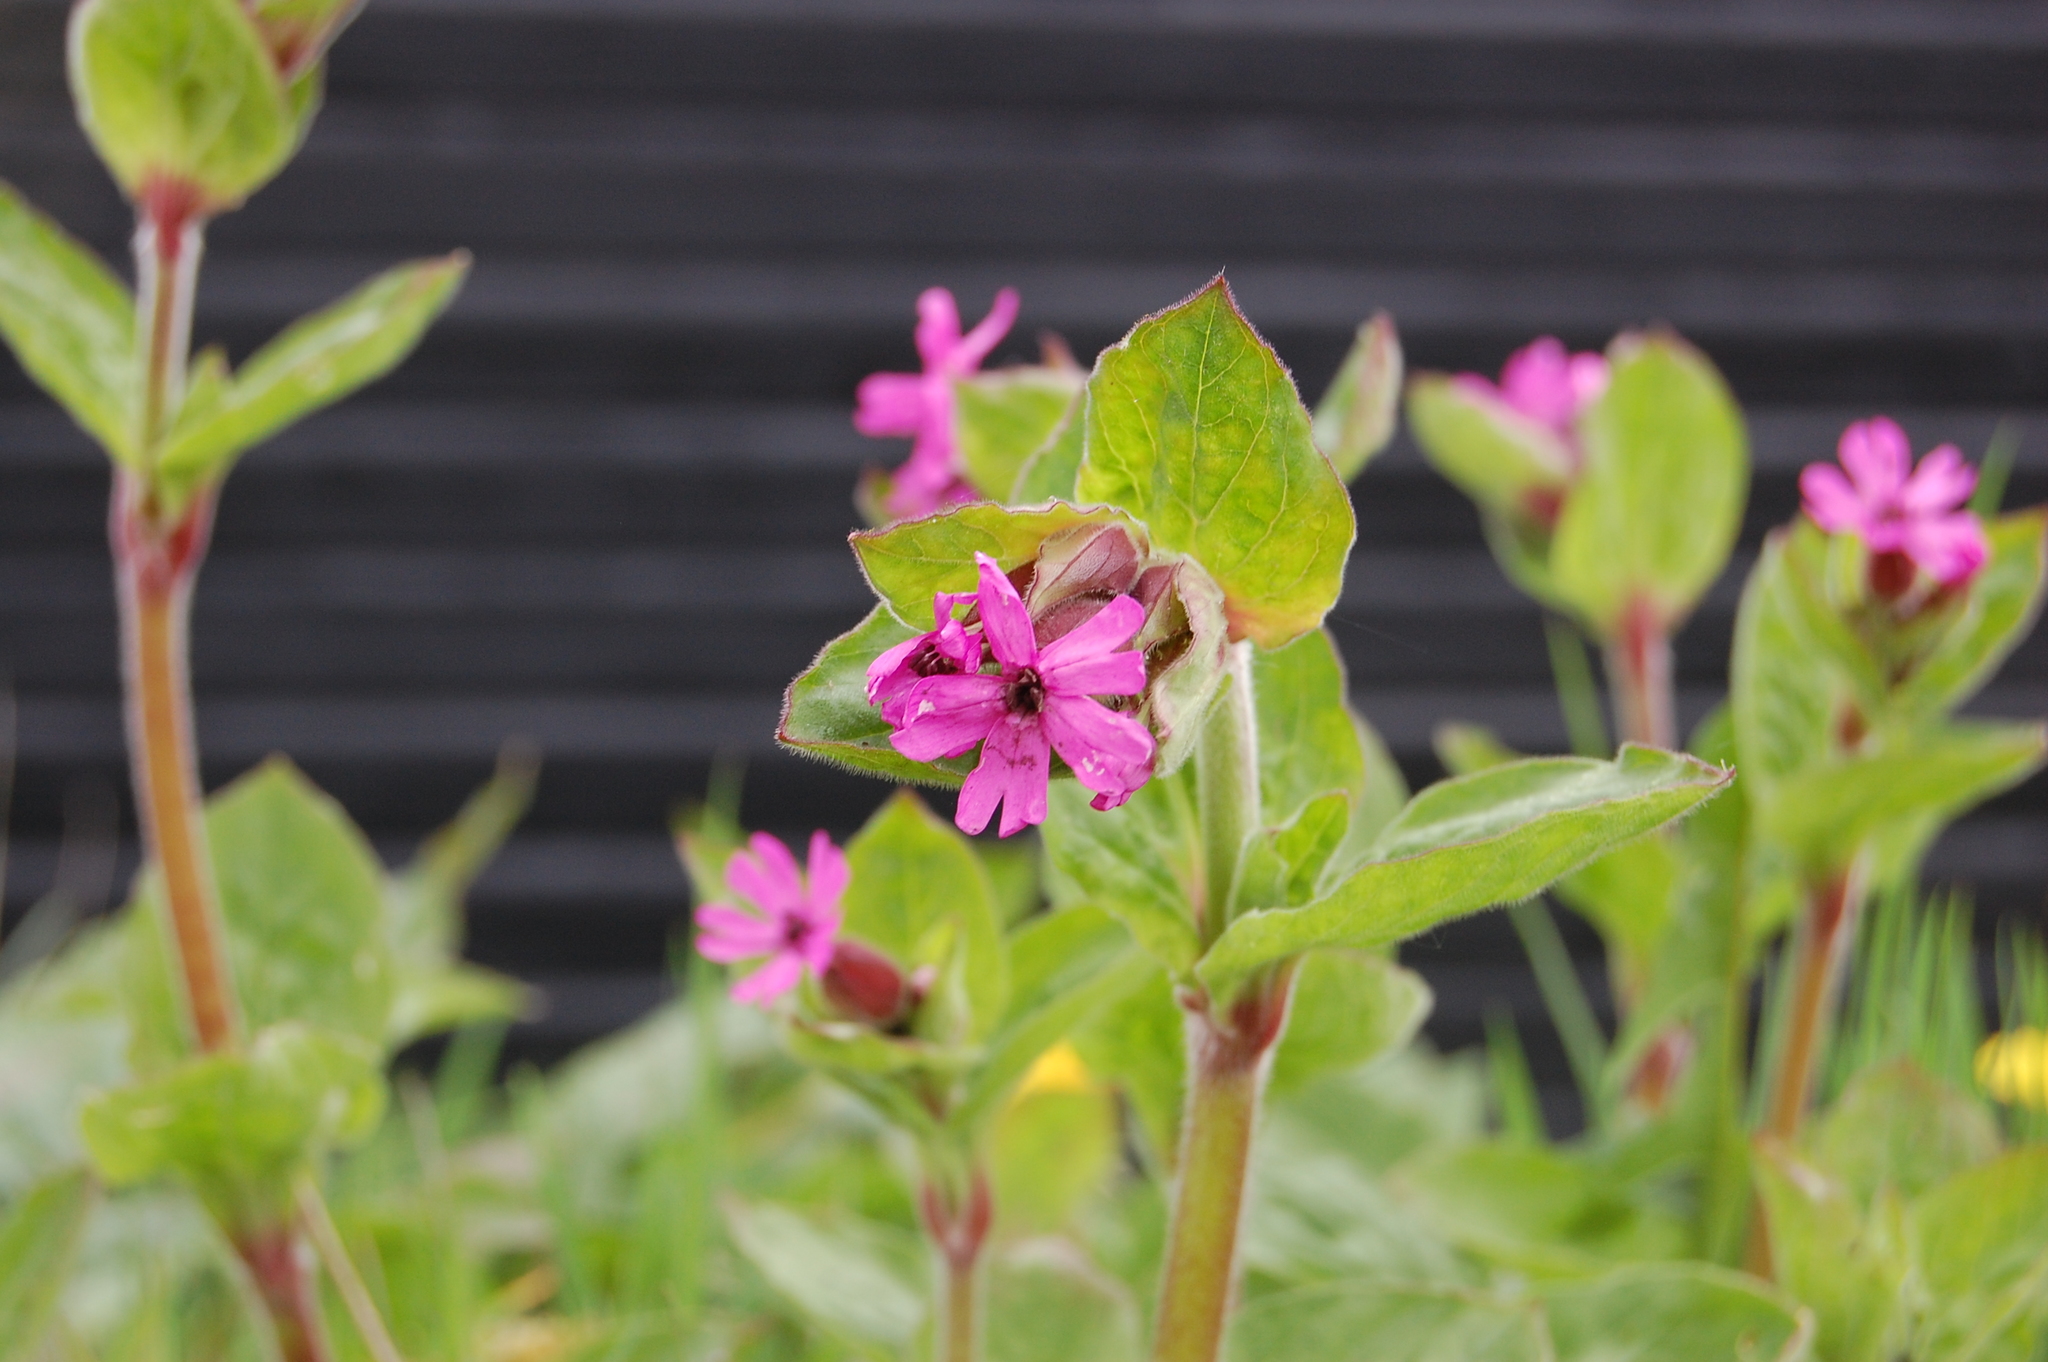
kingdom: Plantae
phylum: Tracheophyta
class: Magnoliopsida
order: Caryophyllales
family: Caryophyllaceae
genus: Silene
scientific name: Silene dioica
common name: Red campion
